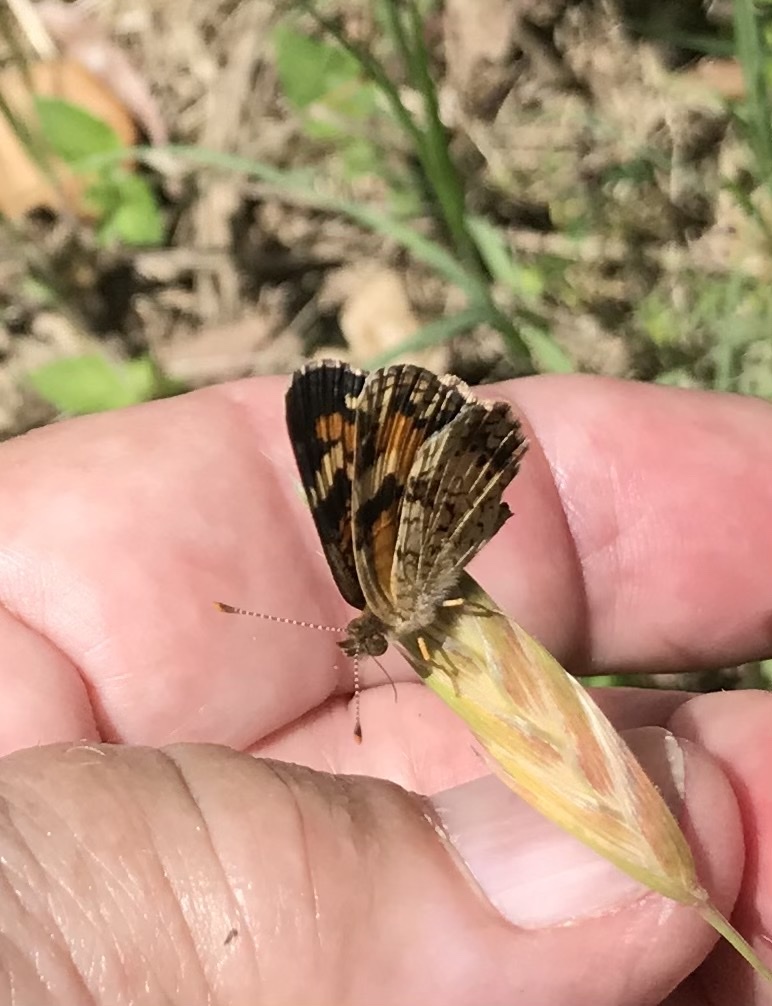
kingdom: Animalia
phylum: Arthropoda
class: Insecta
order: Lepidoptera
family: Nymphalidae
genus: Phyciodes
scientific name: Phyciodes phaon
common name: Phaon crescent
